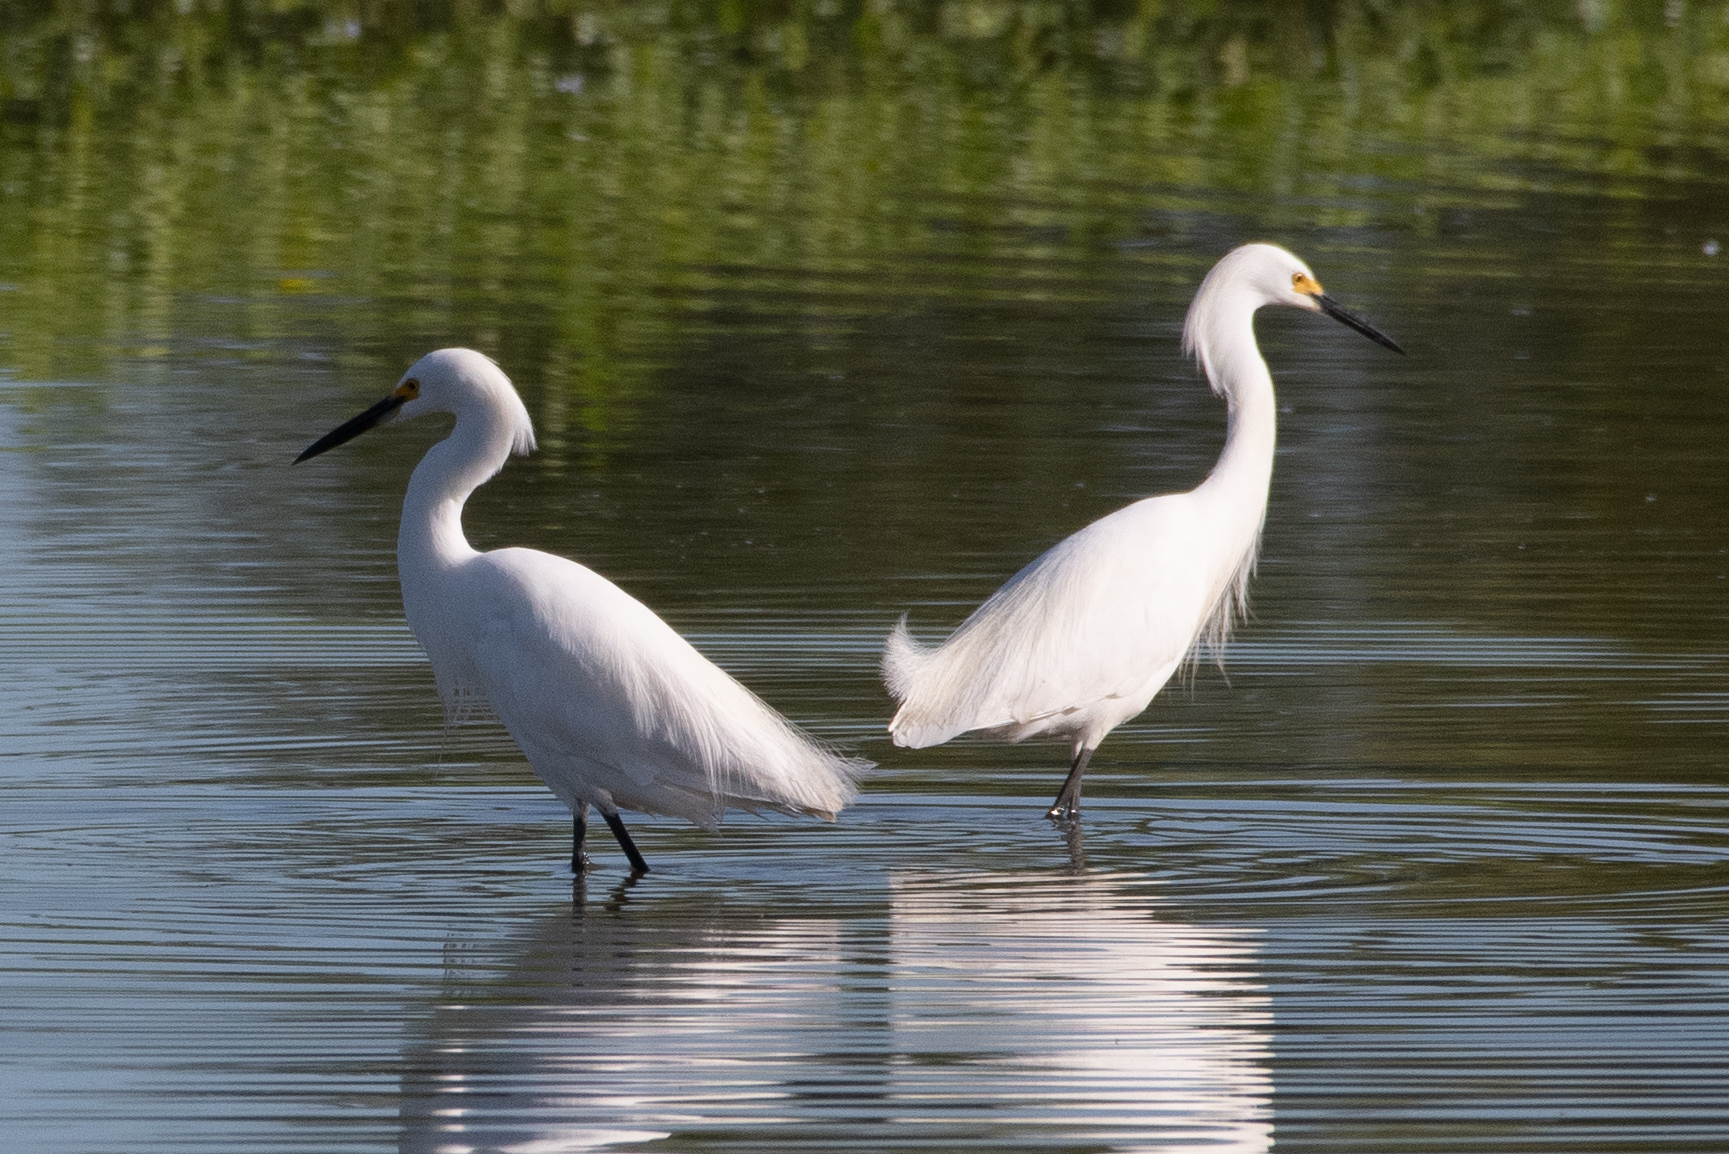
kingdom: Animalia
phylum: Chordata
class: Aves
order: Pelecaniformes
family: Ardeidae
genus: Egretta
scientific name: Egretta thula
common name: Snowy egret
